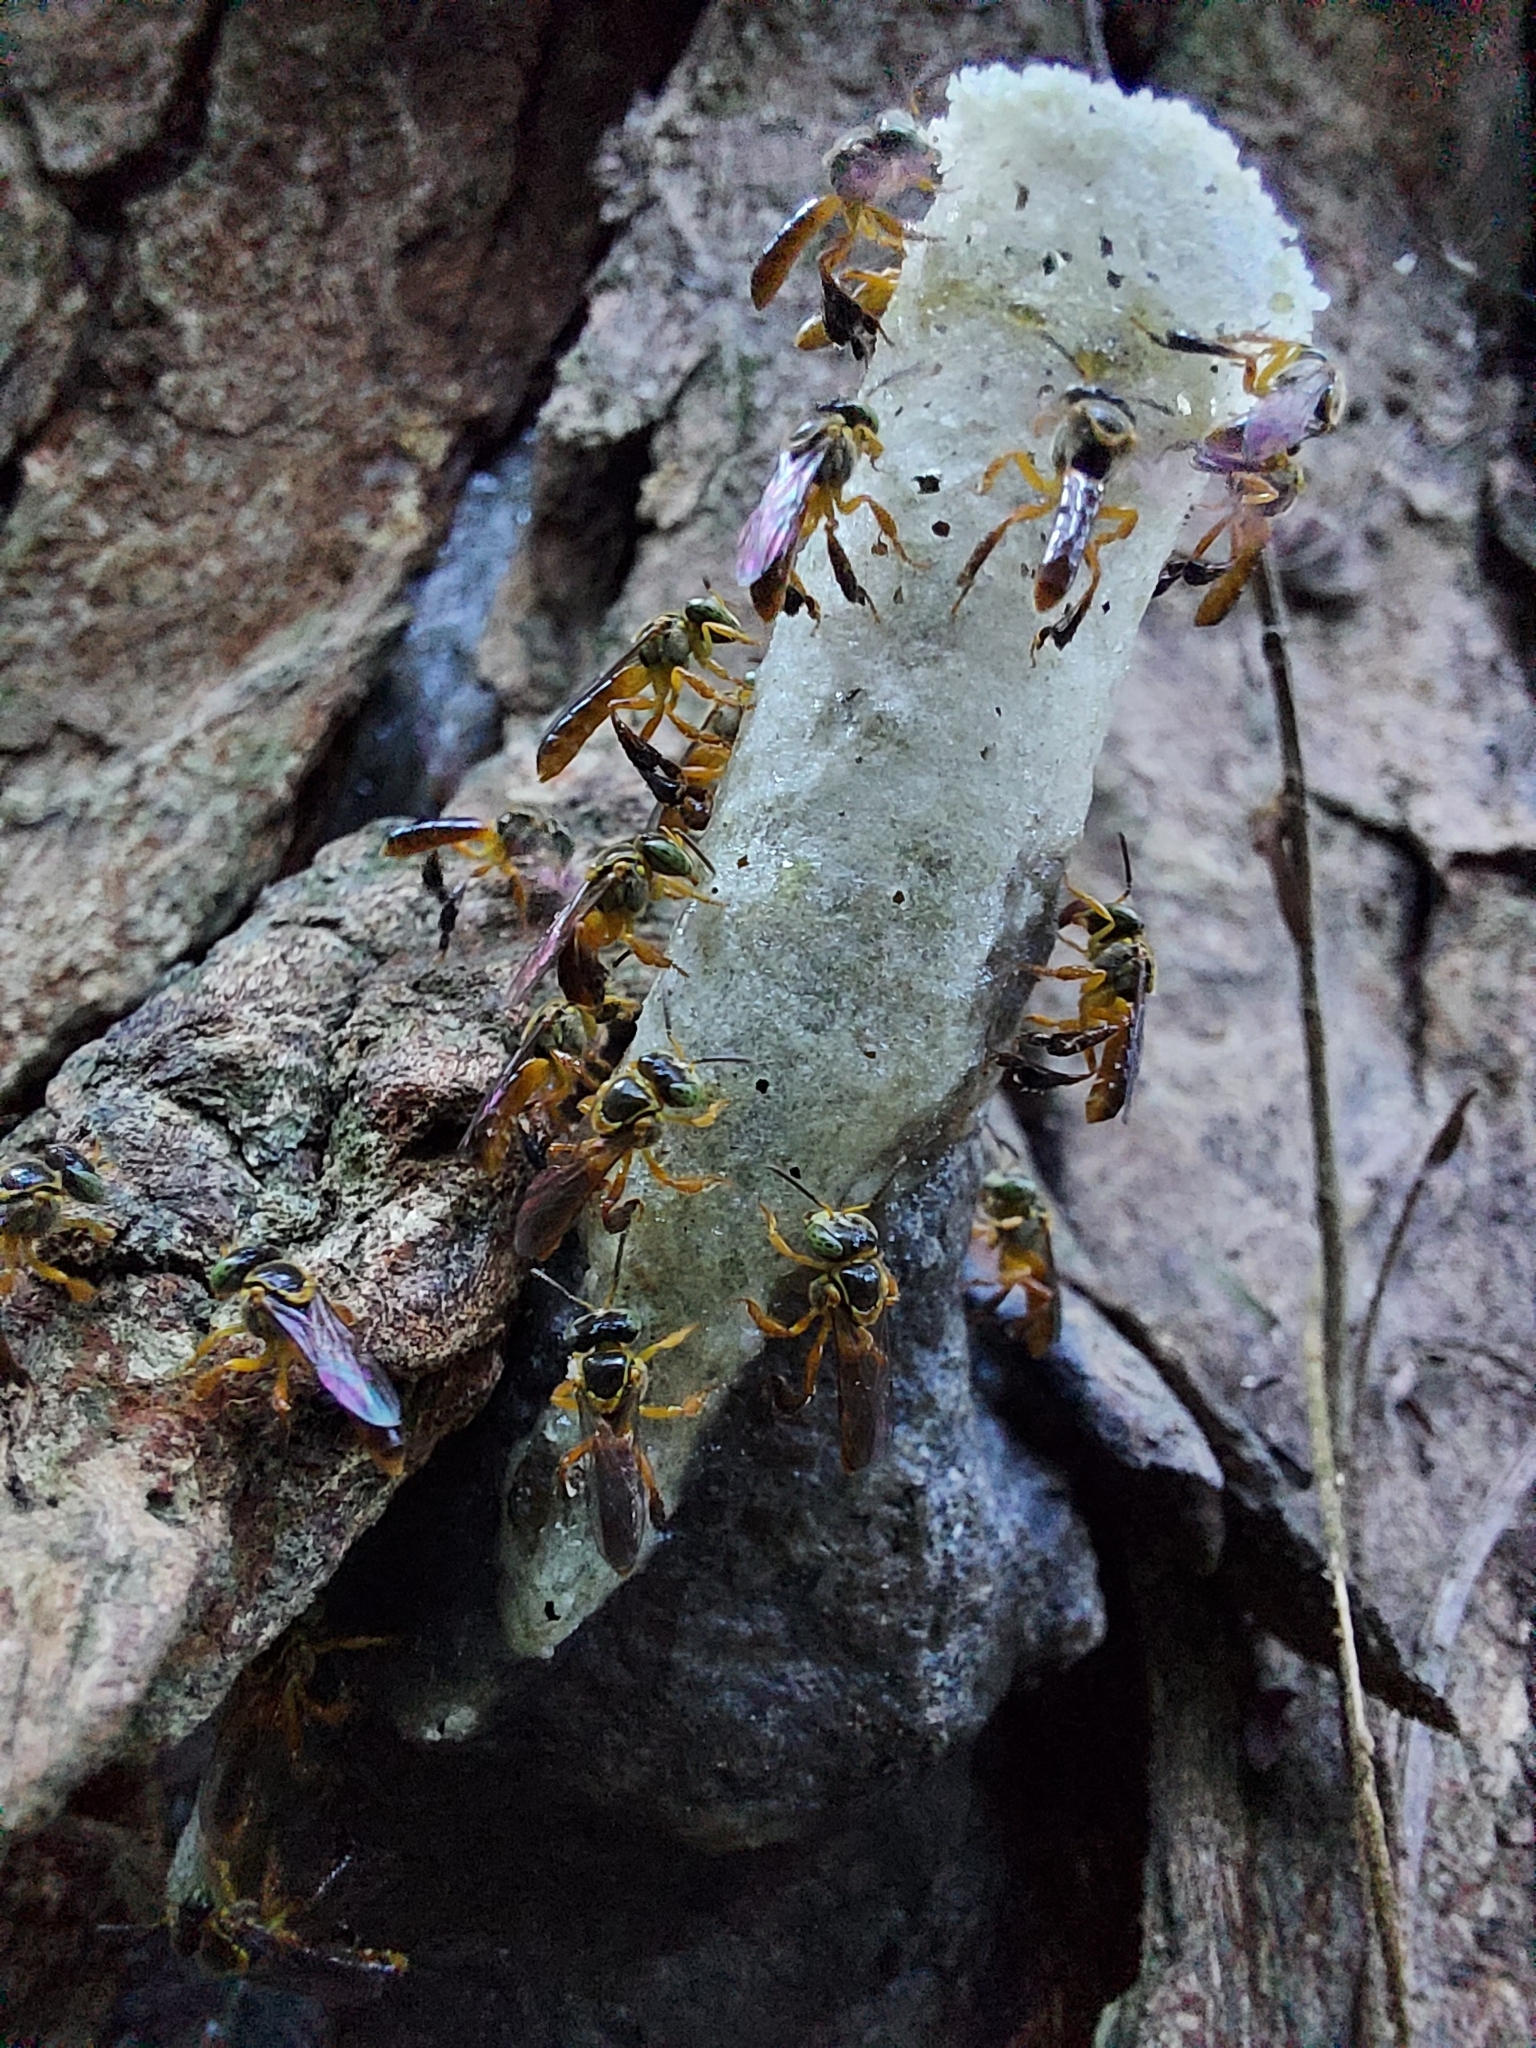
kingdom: Animalia
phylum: Arthropoda
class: Insecta
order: Hymenoptera
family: Apidae
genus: Tetragonisca
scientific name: Tetragonisca angustula
